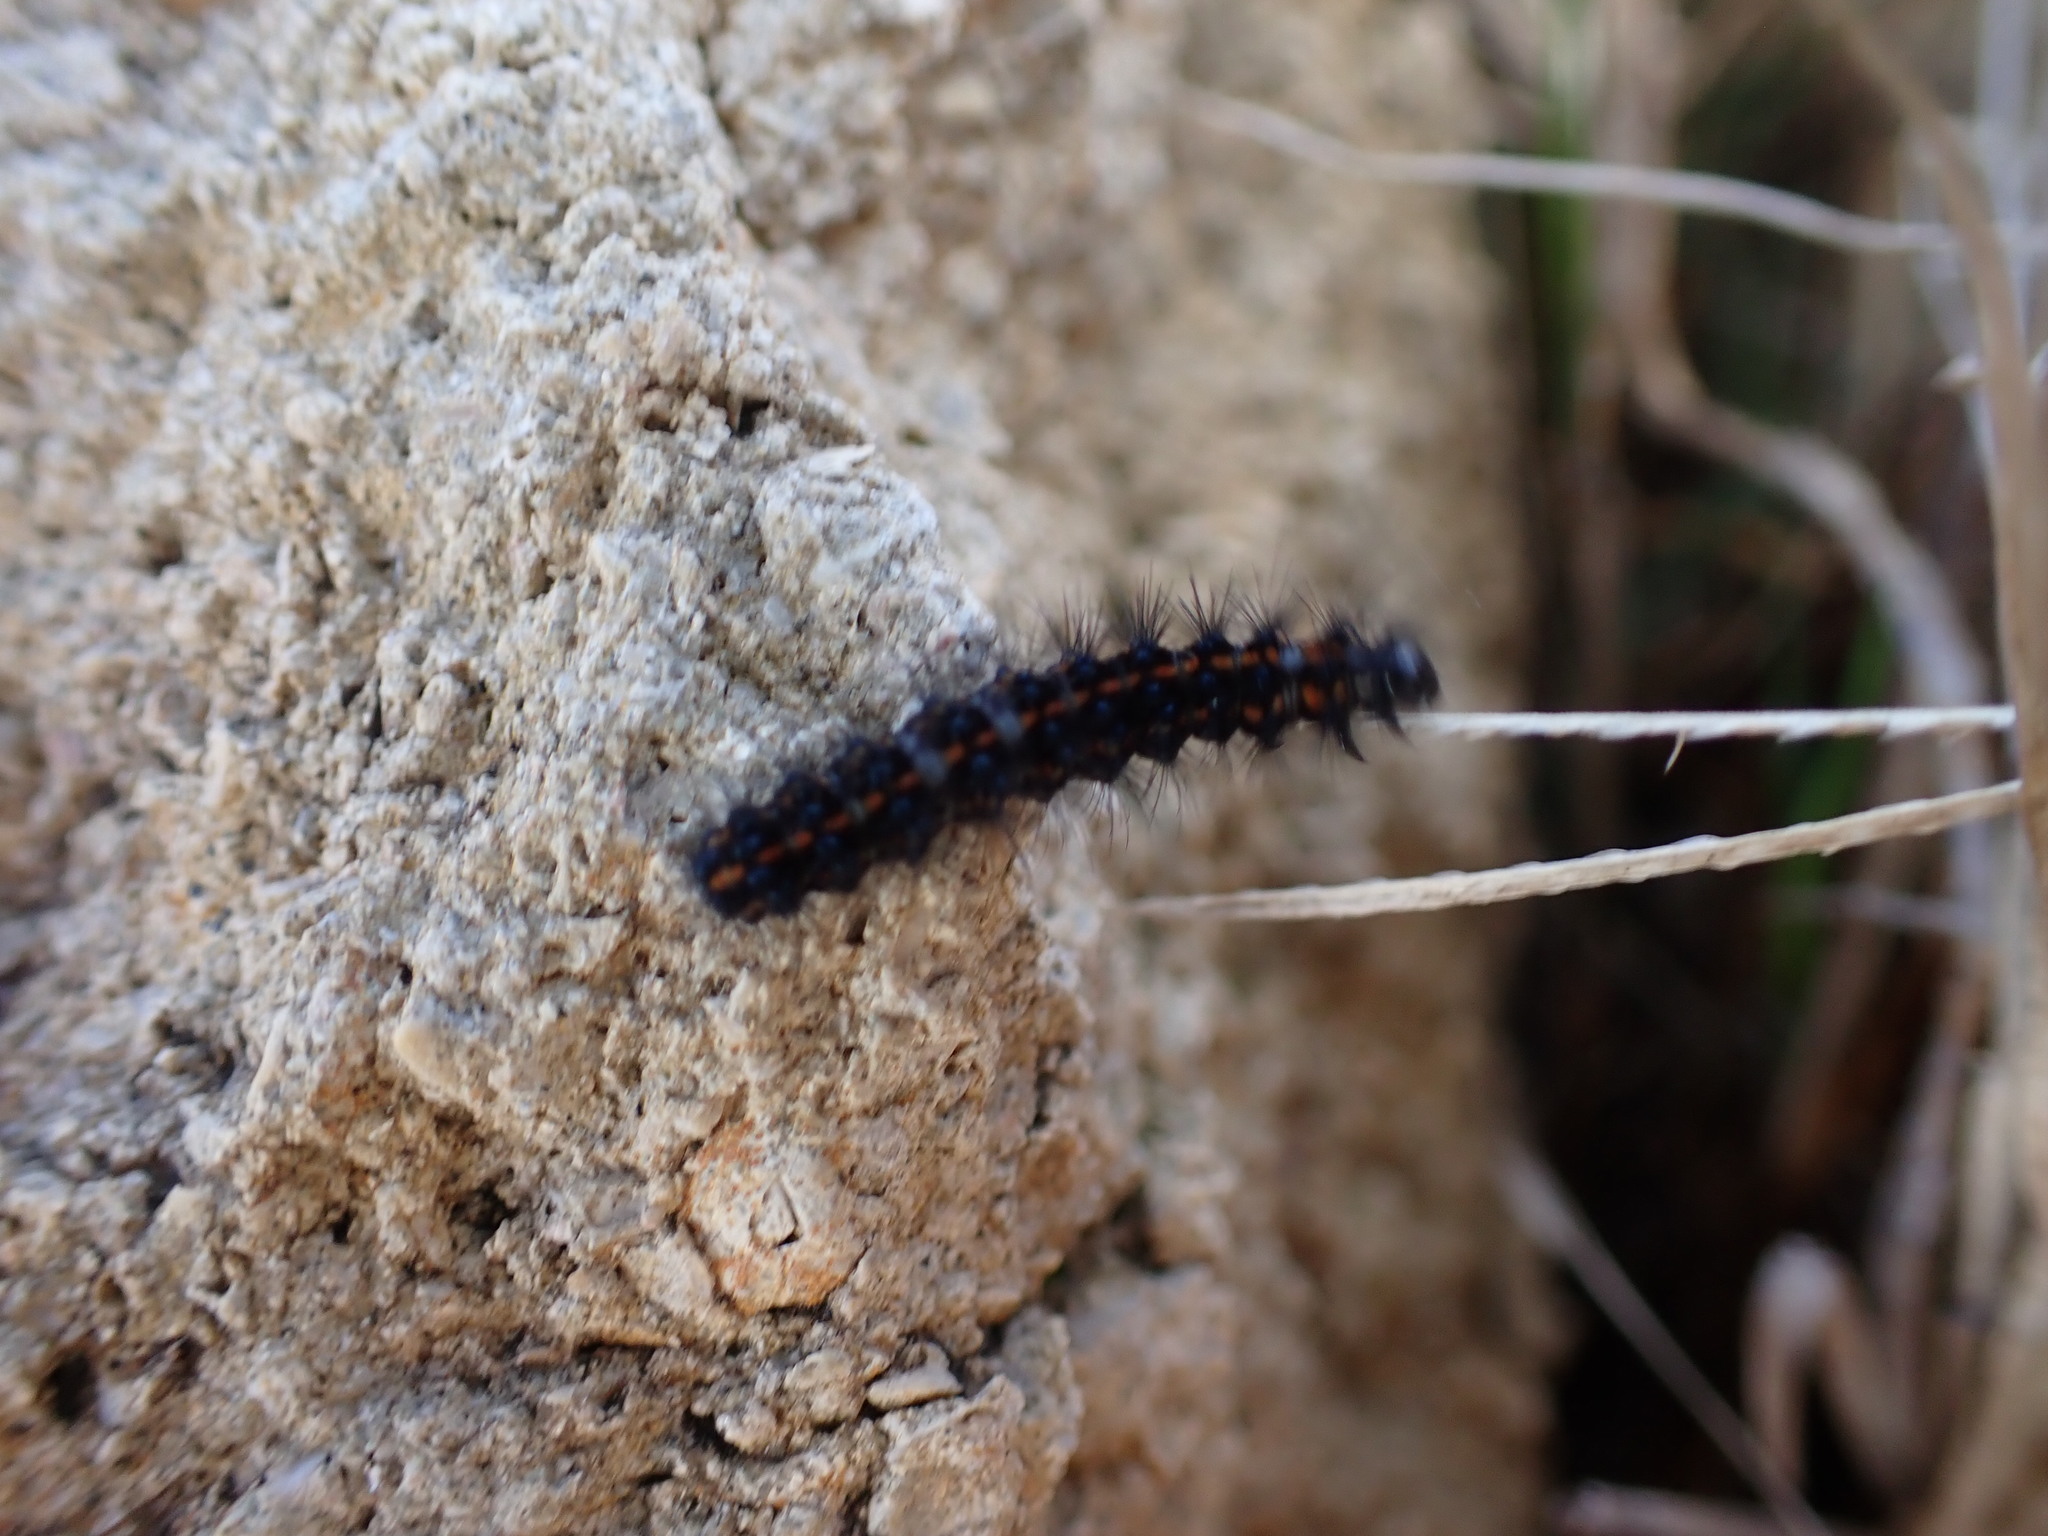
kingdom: Animalia
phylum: Arthropoda
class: Insecta
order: Lepidoptera
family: Erebidae
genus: Nyctemera
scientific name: Nyctemera annulatum
